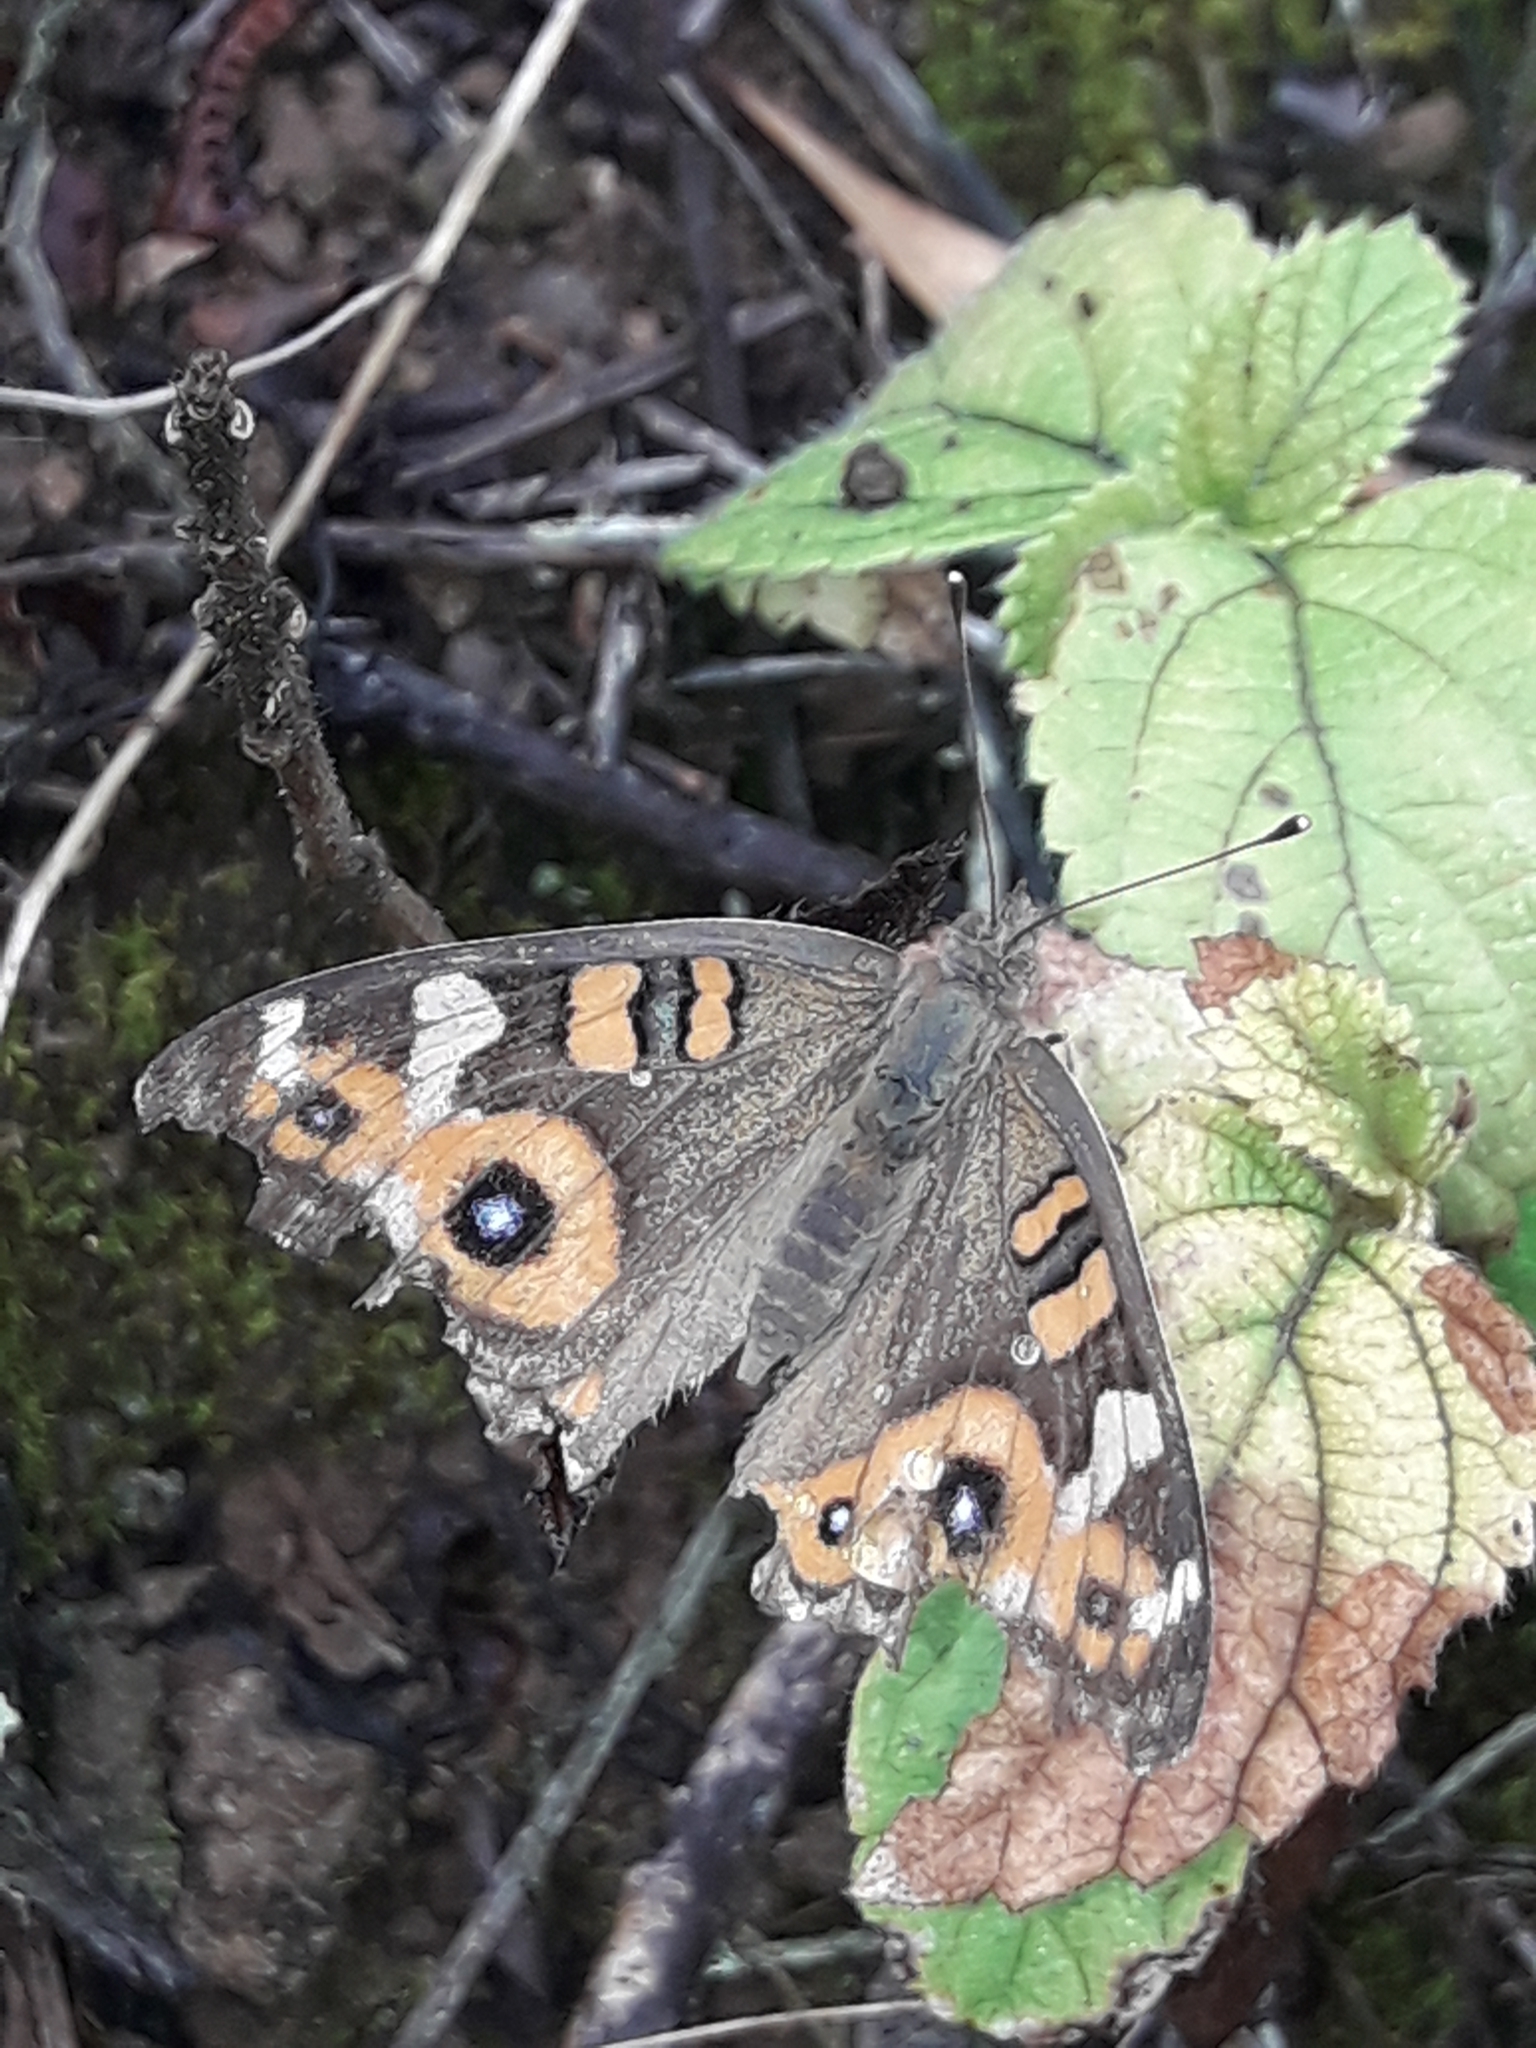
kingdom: Animalia
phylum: Arthropoda
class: Insecta
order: Lepidoptera
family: Nymphalidae
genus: Junonia
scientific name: Junonia villida
